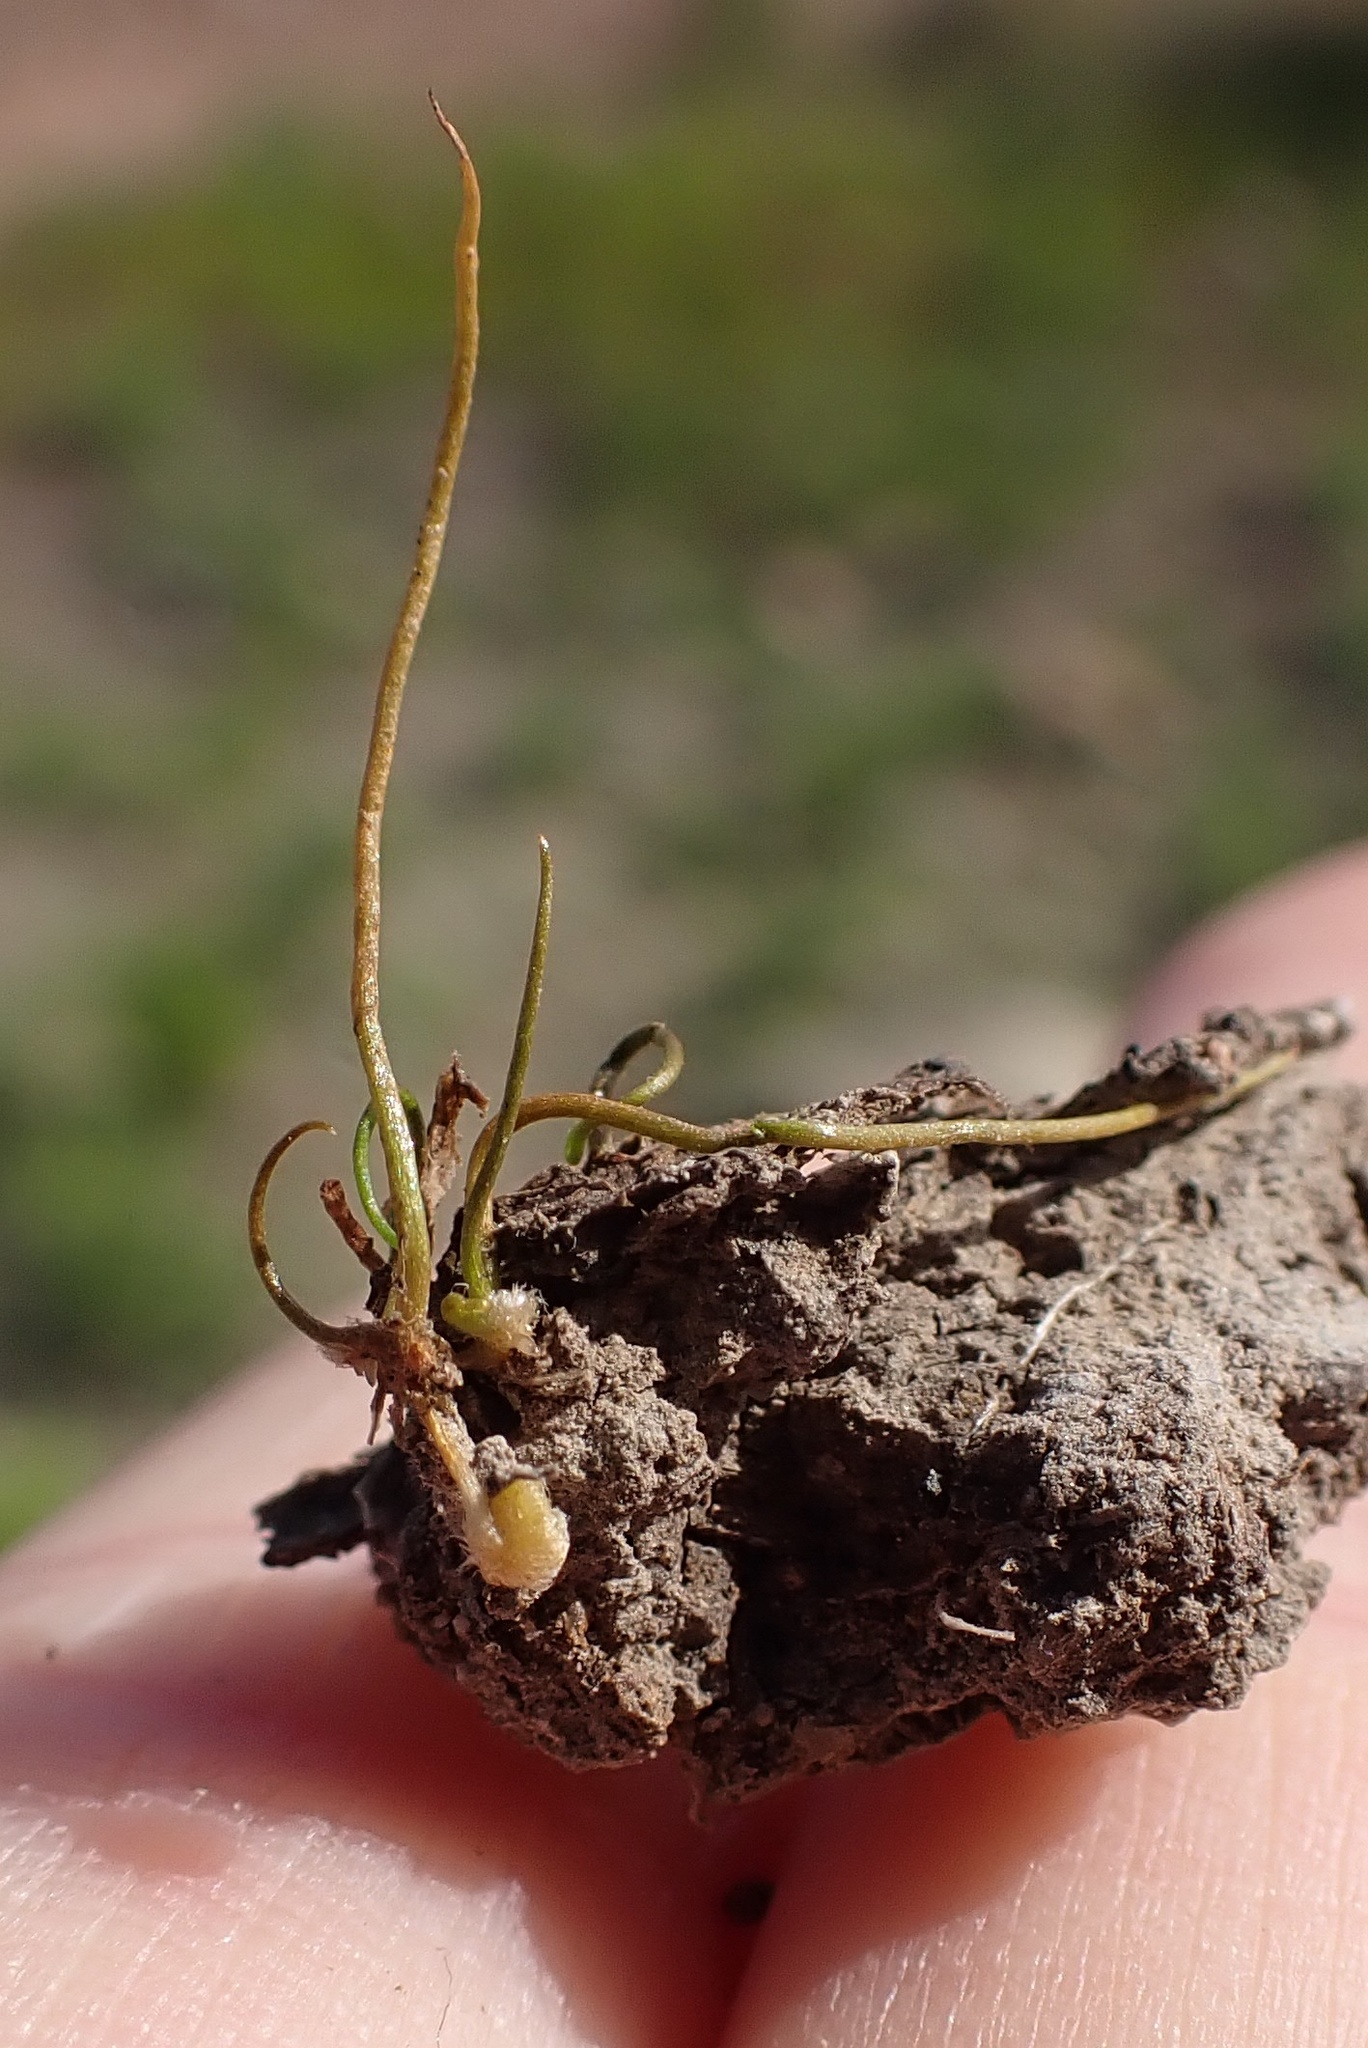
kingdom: Plantae
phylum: Tracheophyta
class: Polypodiopsida
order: Salviniales
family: Marsileaceae
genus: Pilularia
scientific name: Pilularia americana
